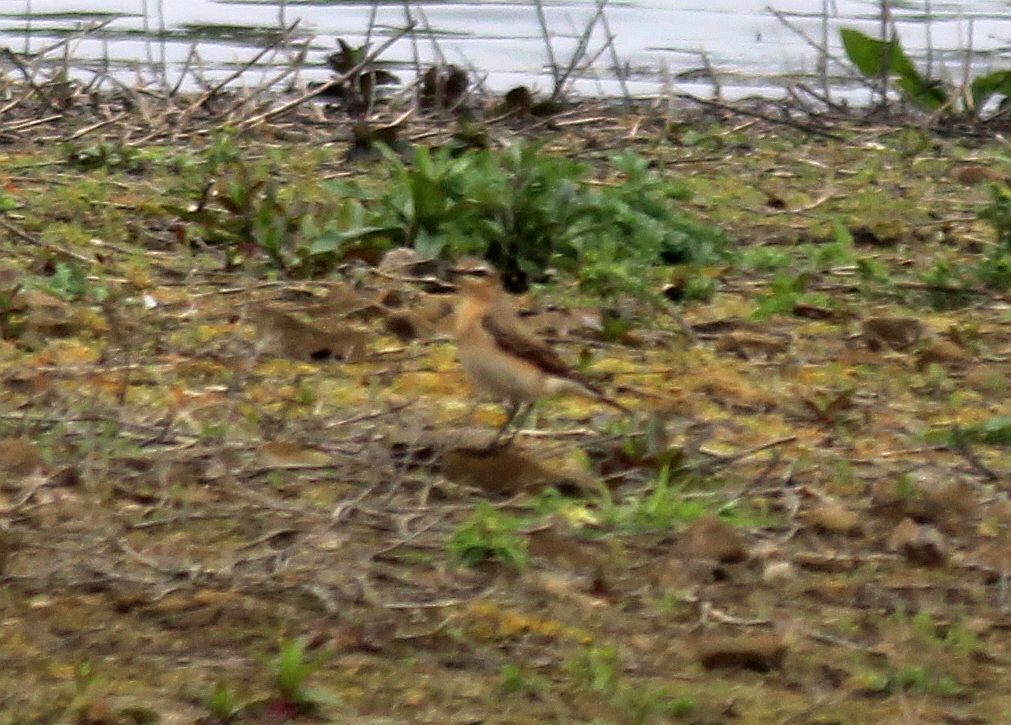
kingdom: Animalia
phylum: Chordata
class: Aves
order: Passeriformes
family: Muscicapidae
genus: Oenanthe
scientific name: Oenanthe oenanthe
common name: Northern wheatear
